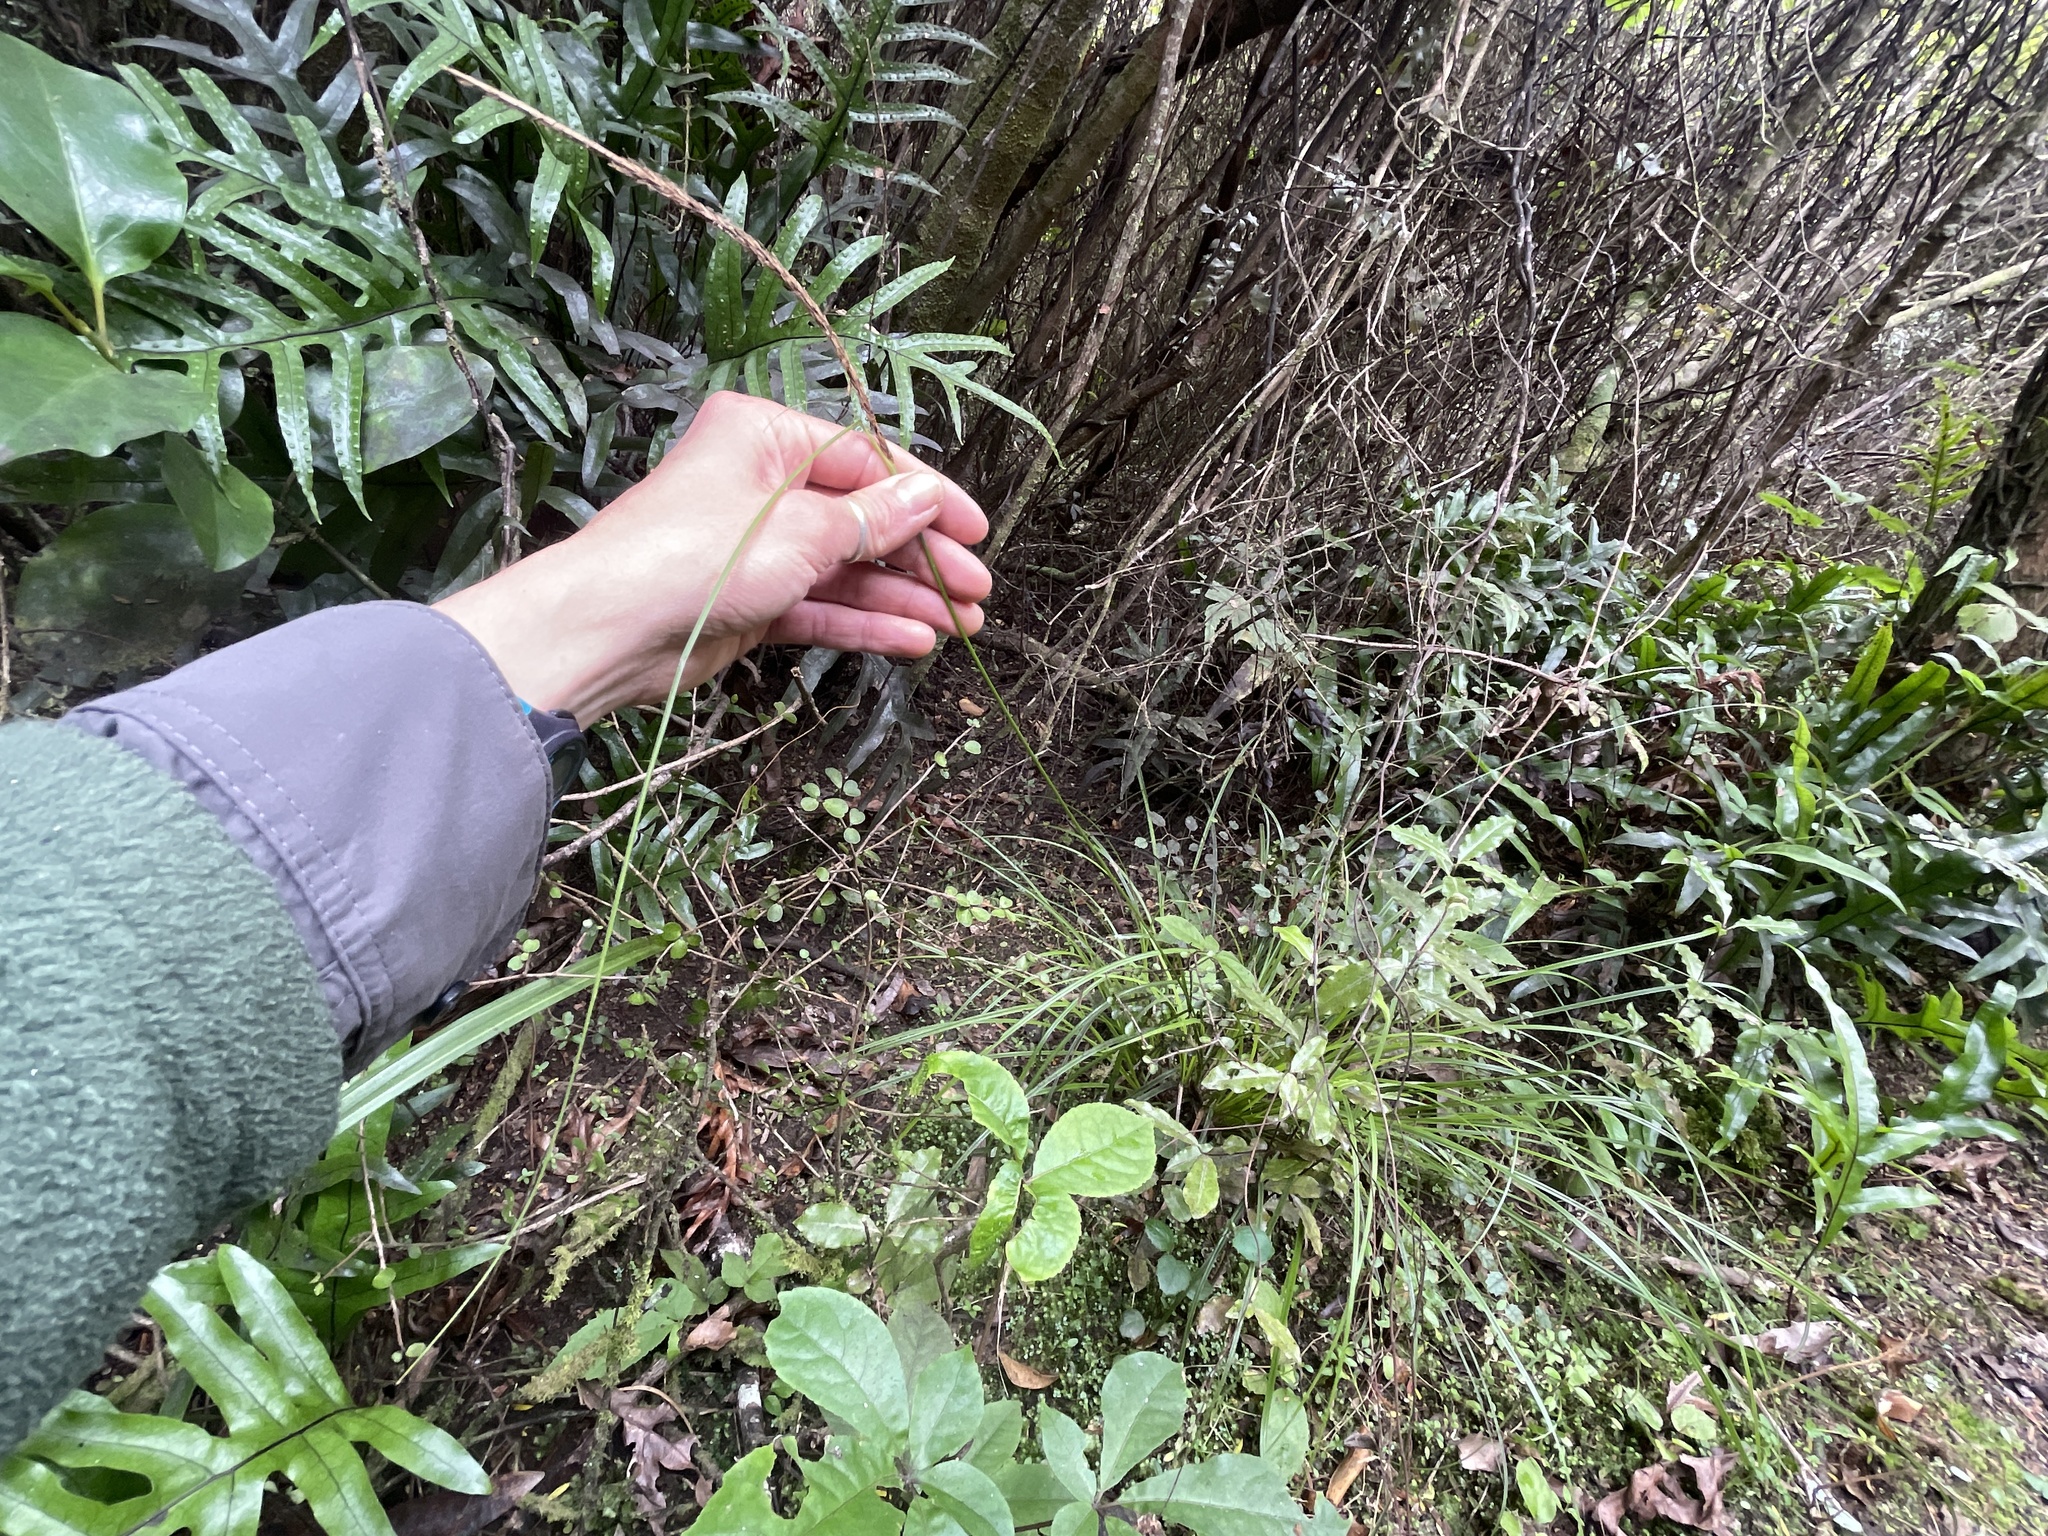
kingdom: Plantae
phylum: Tracheophyta
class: Liliopsida
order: Poales
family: Cyperaceae
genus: Carex
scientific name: Carex uncinata
